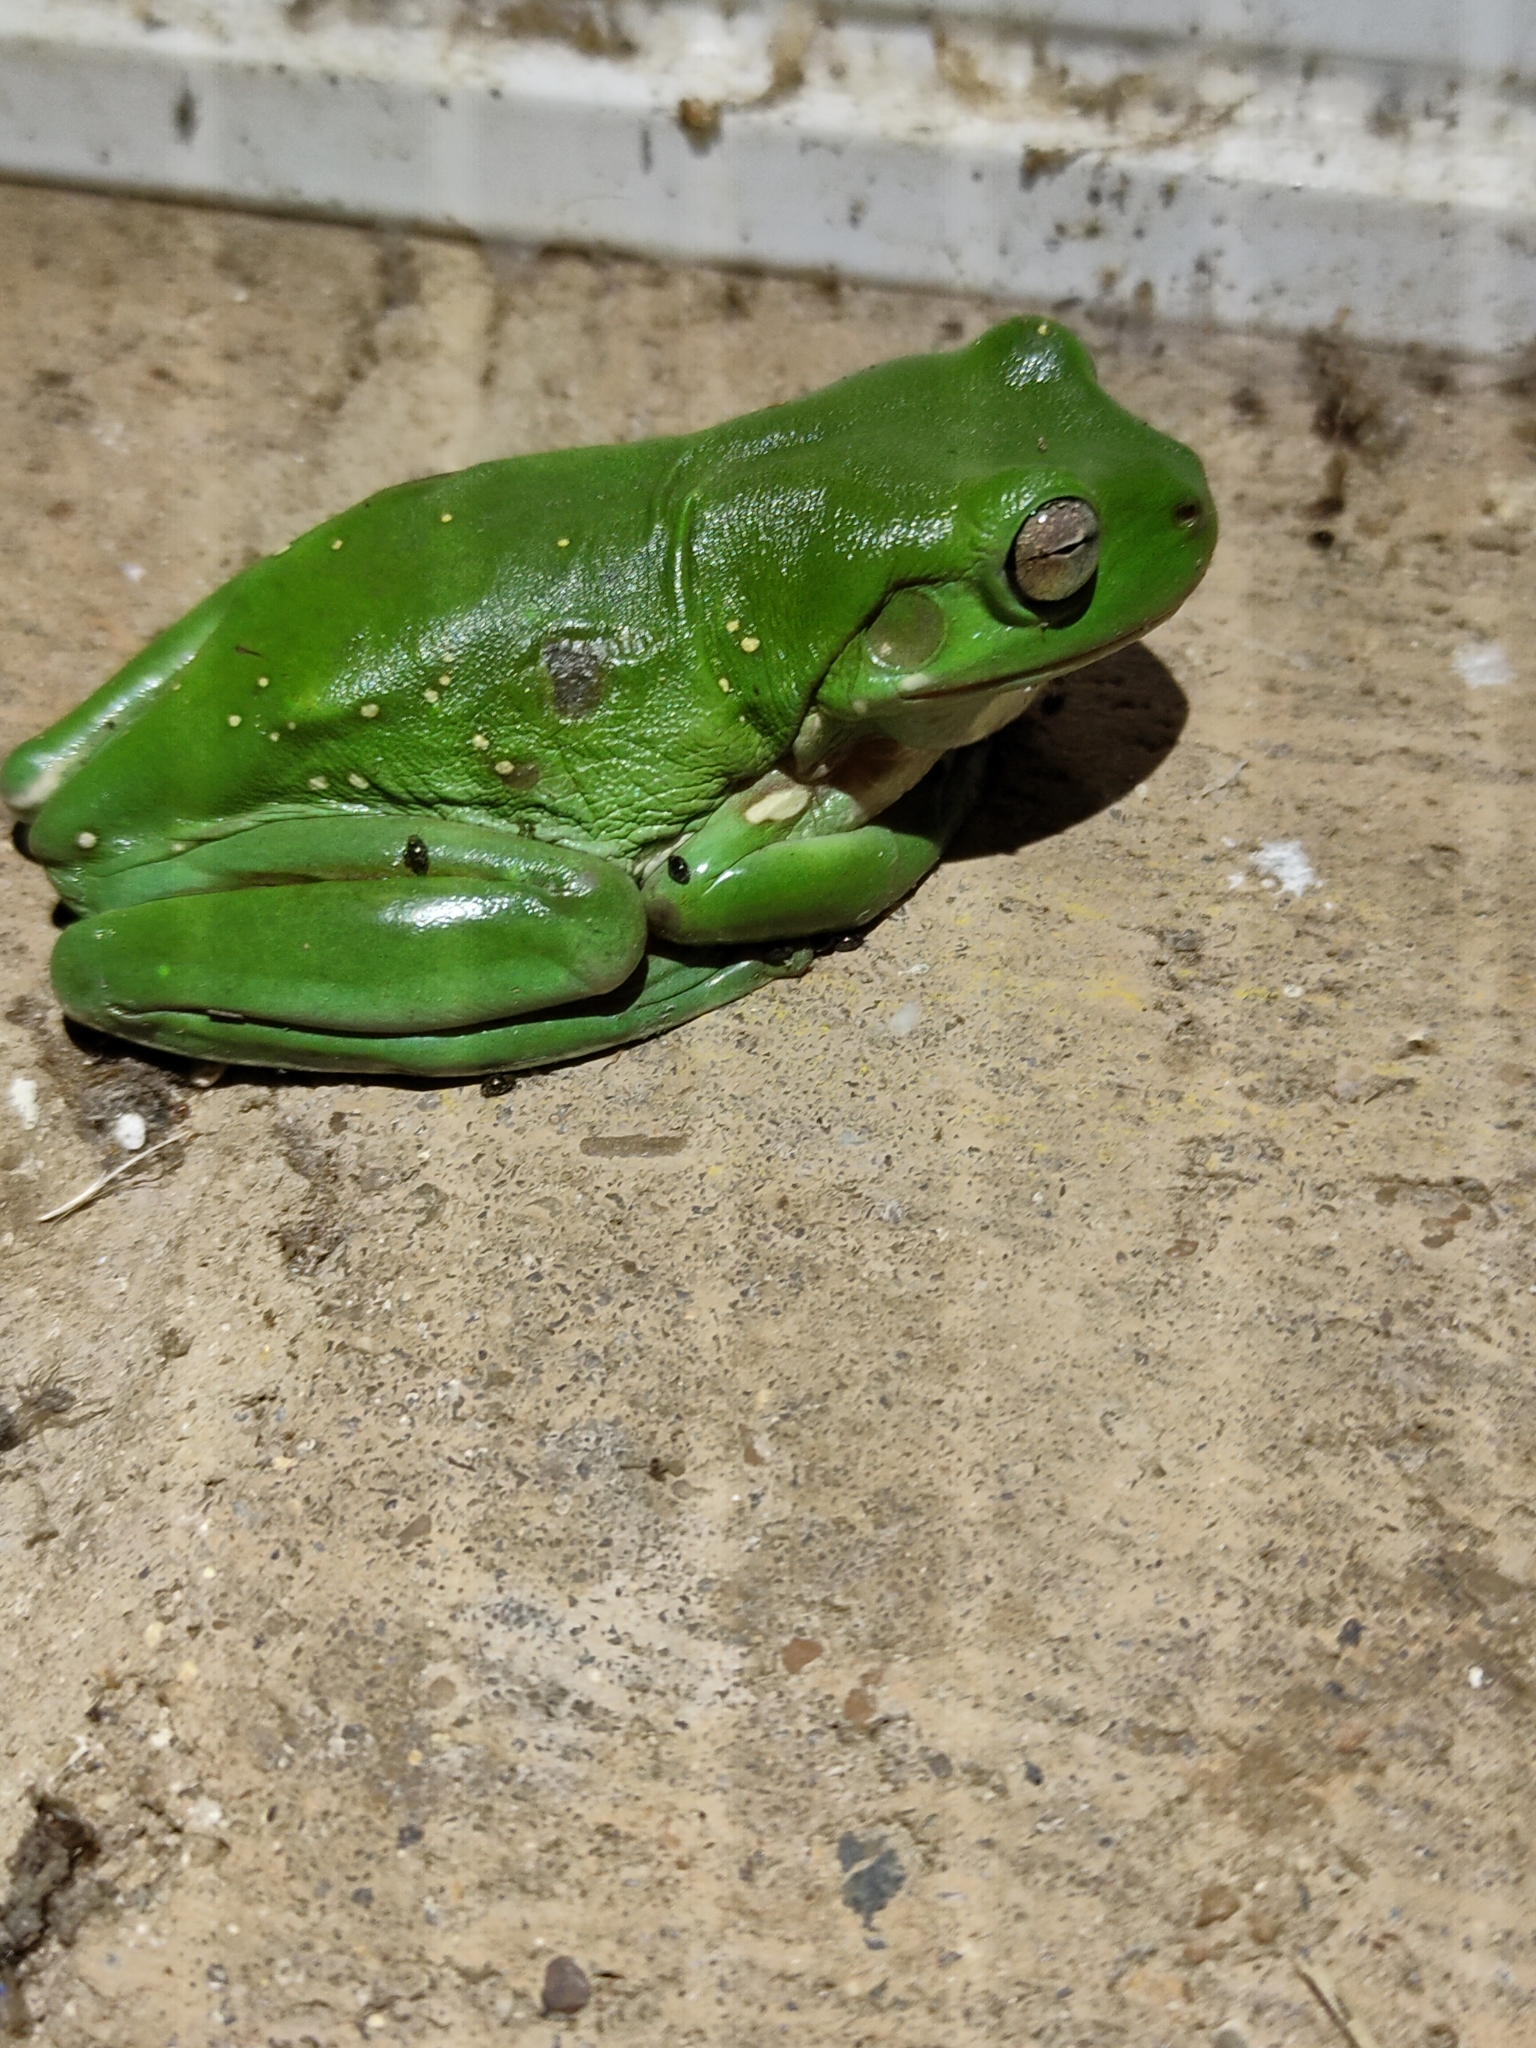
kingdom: Animalia
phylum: Chordata
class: Amphibia
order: Anura
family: Pelodryadidae
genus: Ranoidea
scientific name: Ranoidea caerulea
